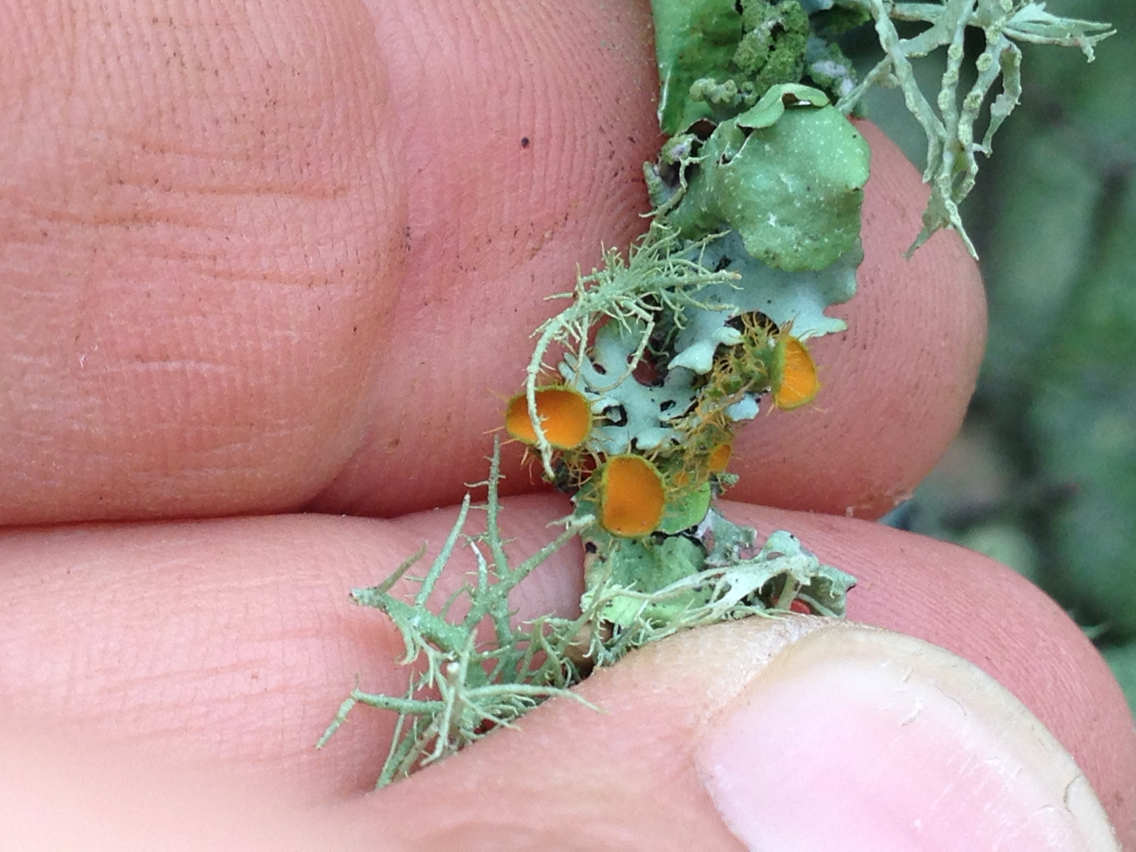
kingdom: Fungi
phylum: Ascomycota
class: Lecanoromycetes
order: Teloschistales
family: Teloschistaceae
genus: Niorma
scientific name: Niorma chrysophthalma
